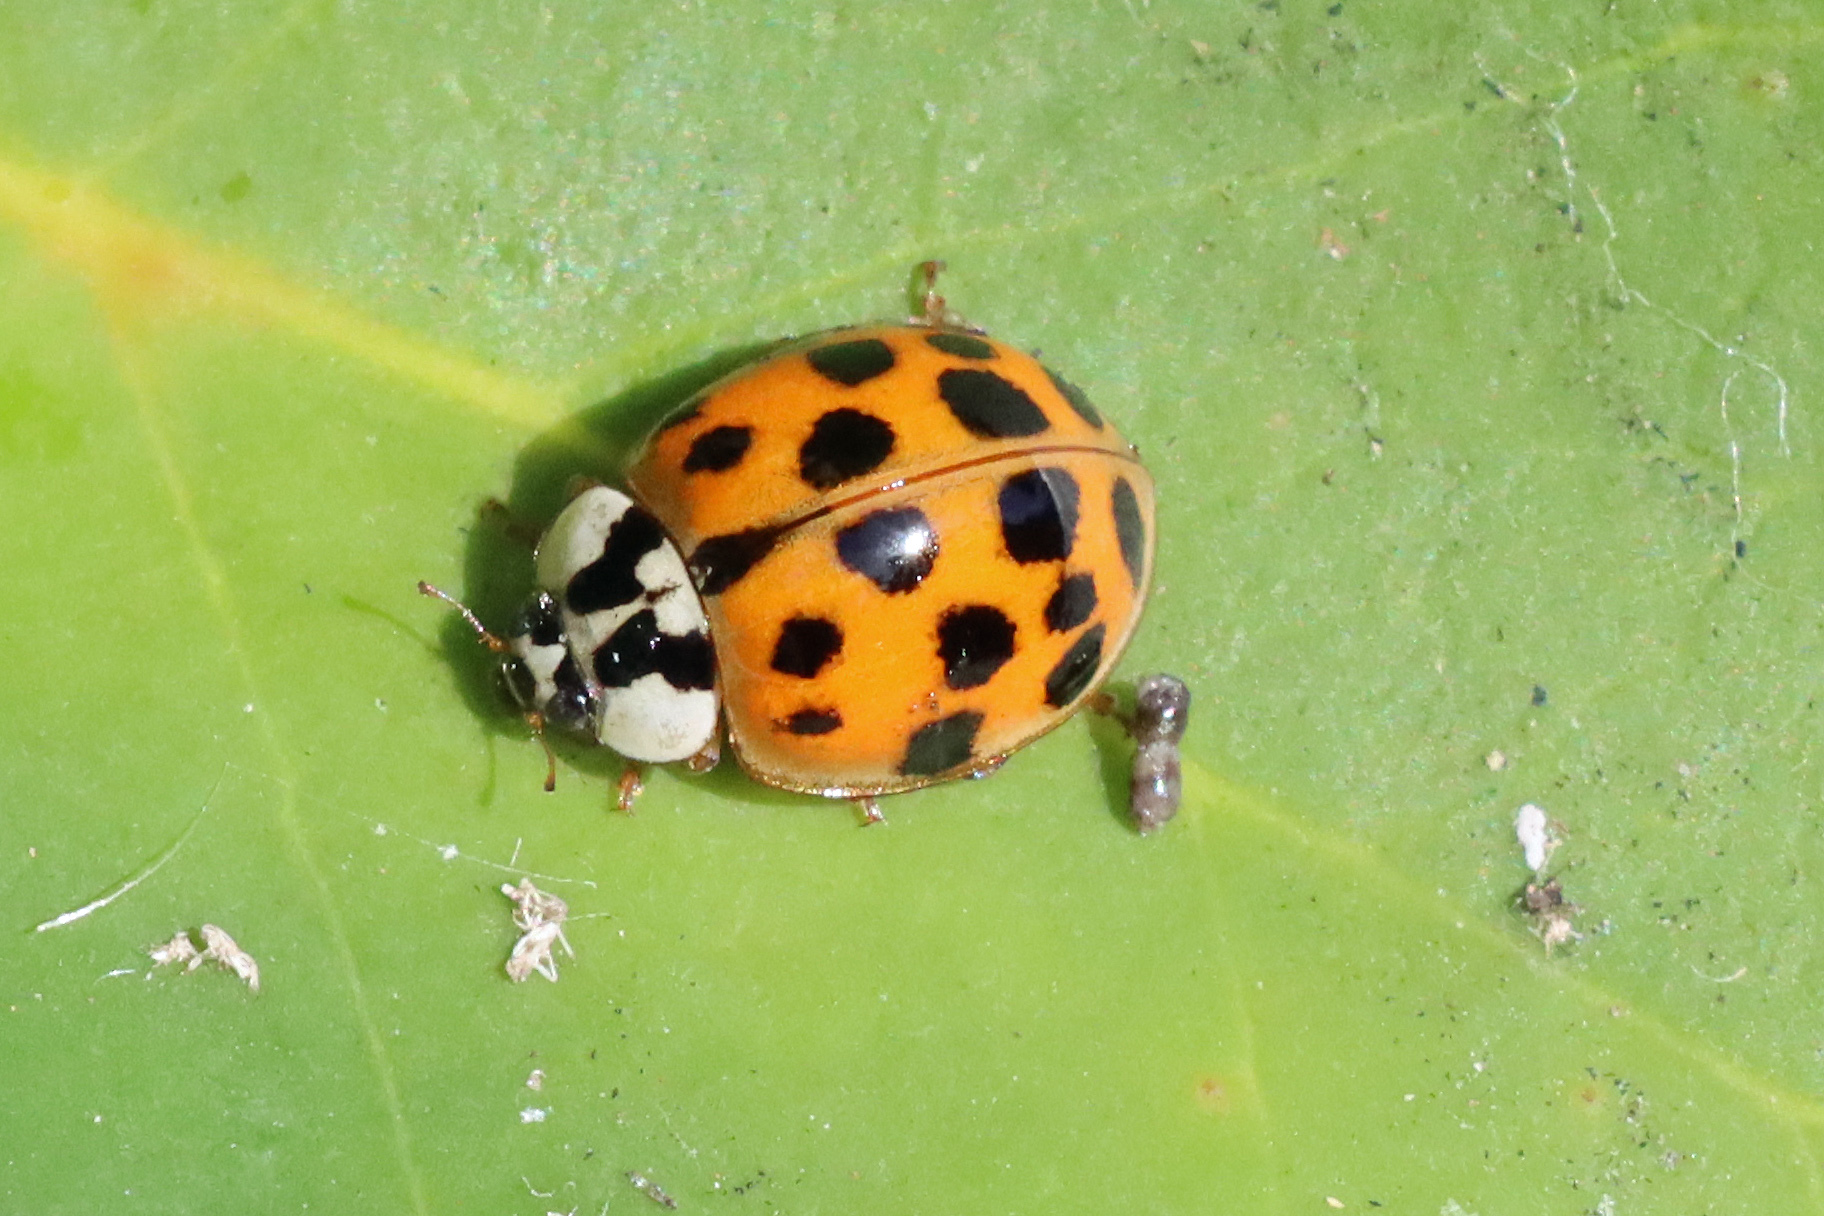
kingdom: Animalia
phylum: Arthropoda
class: Insecta
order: Coleoptera
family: Coccinellidae
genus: Harmonia
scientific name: Harmonia axyridis
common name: Harlequin ladybird
